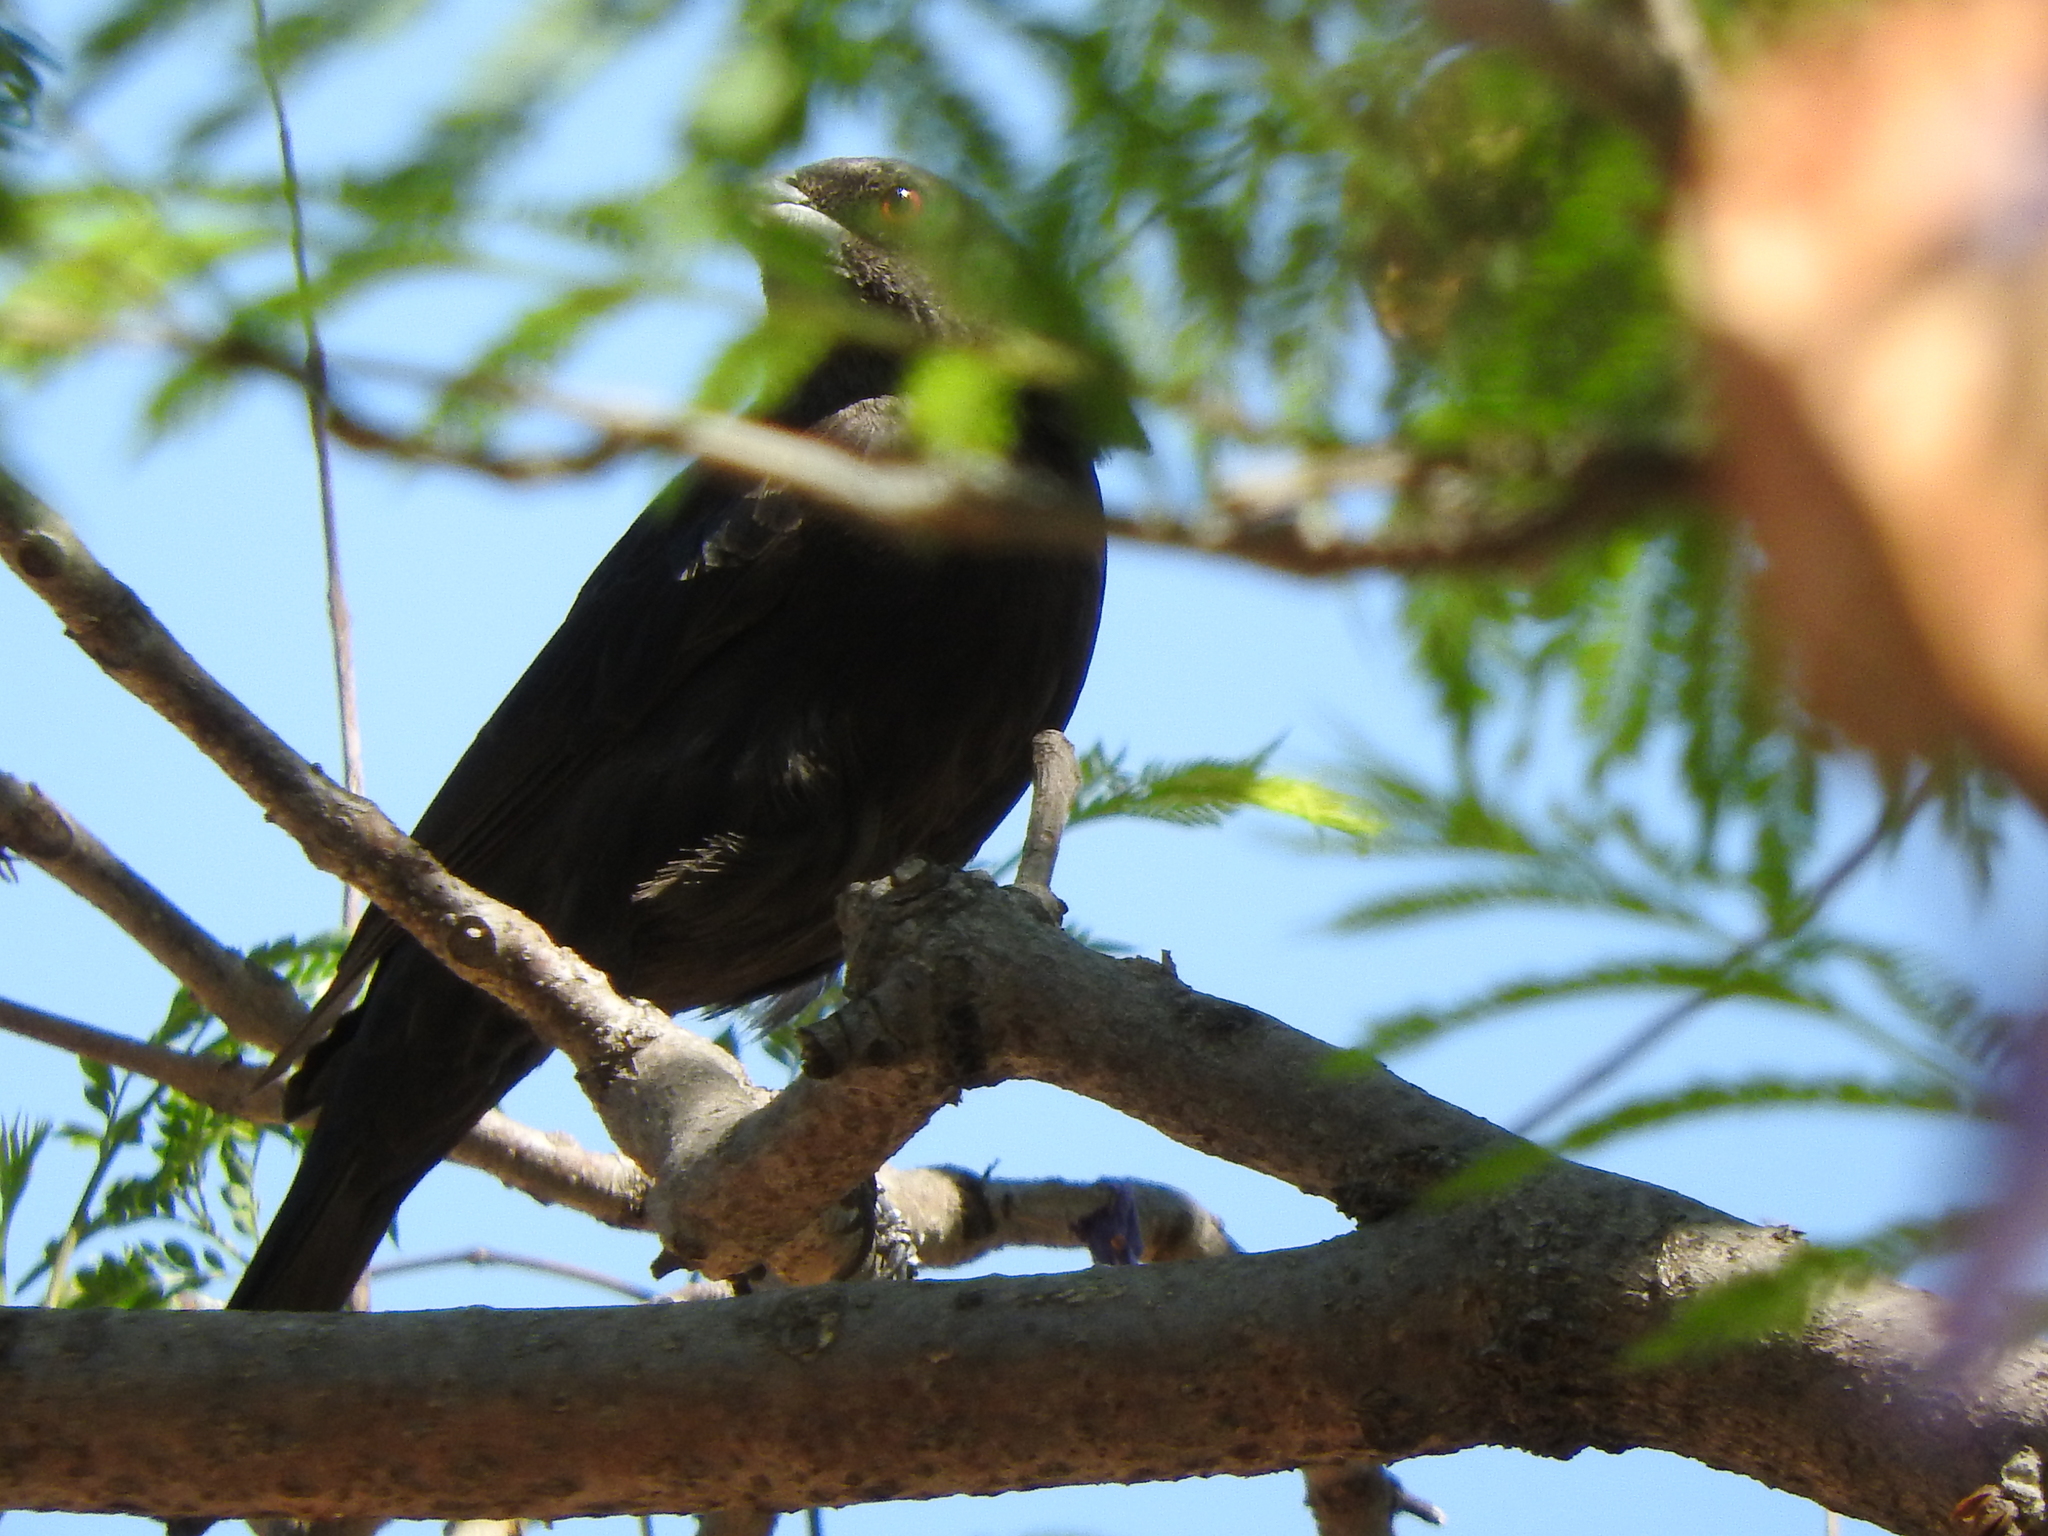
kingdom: Animalia
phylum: Chordata
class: Aves
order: Passeriformes
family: Icteridae
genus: Molothrus
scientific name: Molothrus aeneus
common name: Bronzed cowbird
